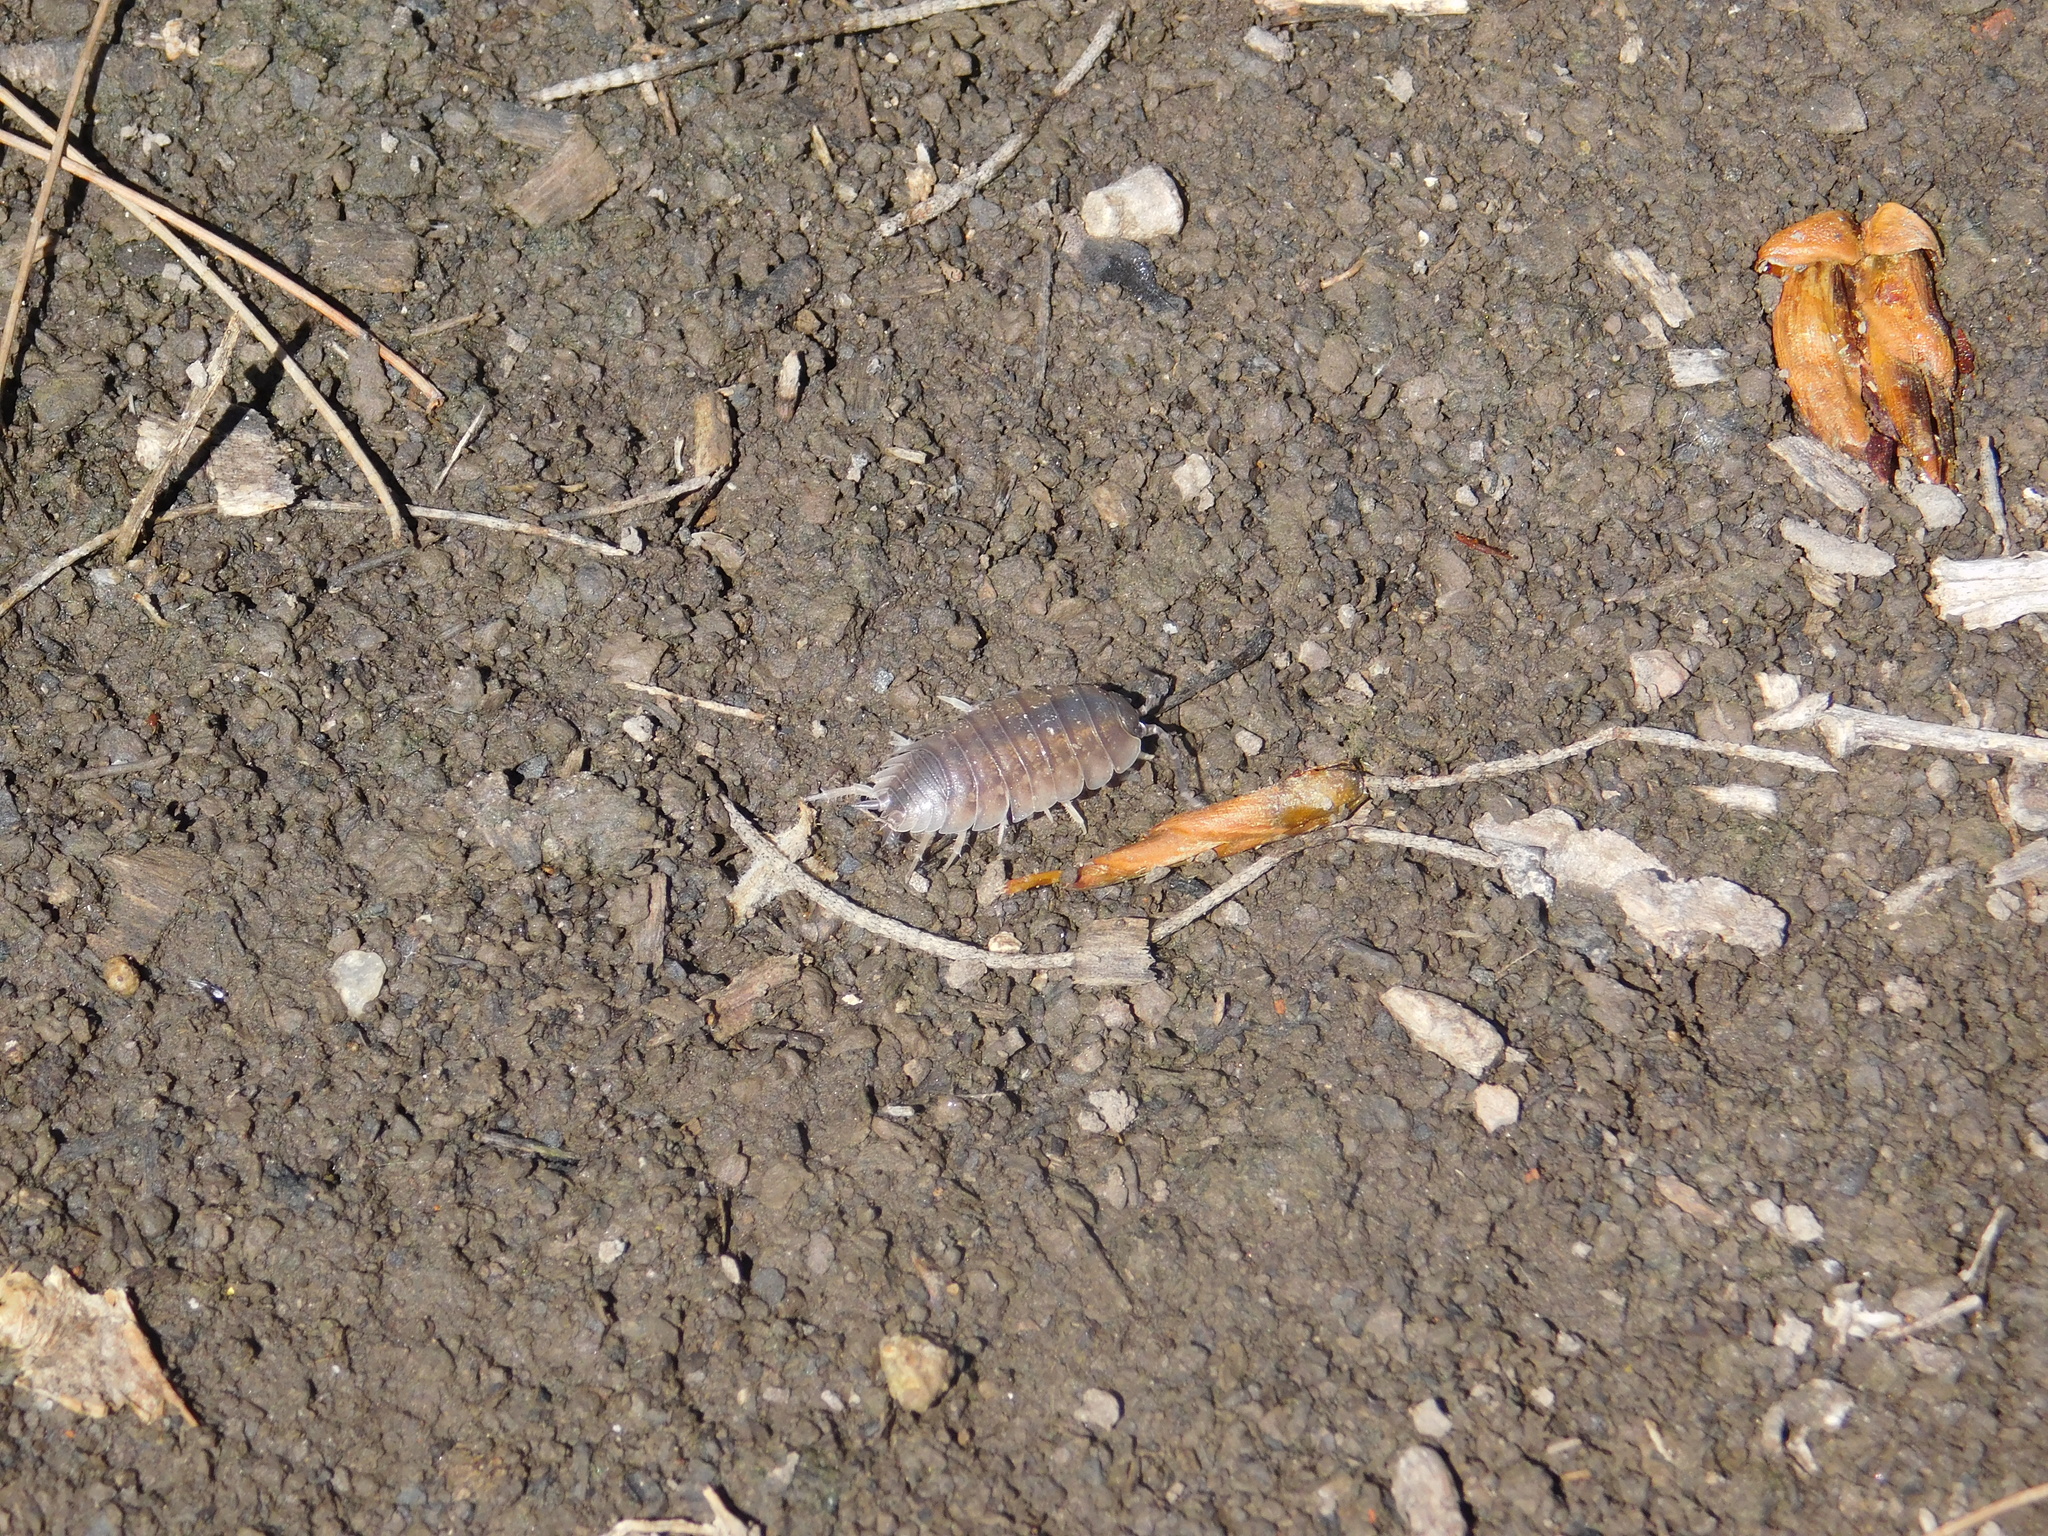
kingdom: Animalia
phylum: Arthropoda
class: Malacostraca
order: Isopoda
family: Porcellionidae
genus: Porcellio
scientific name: Porcellio laevis
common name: Swift woodlouse
